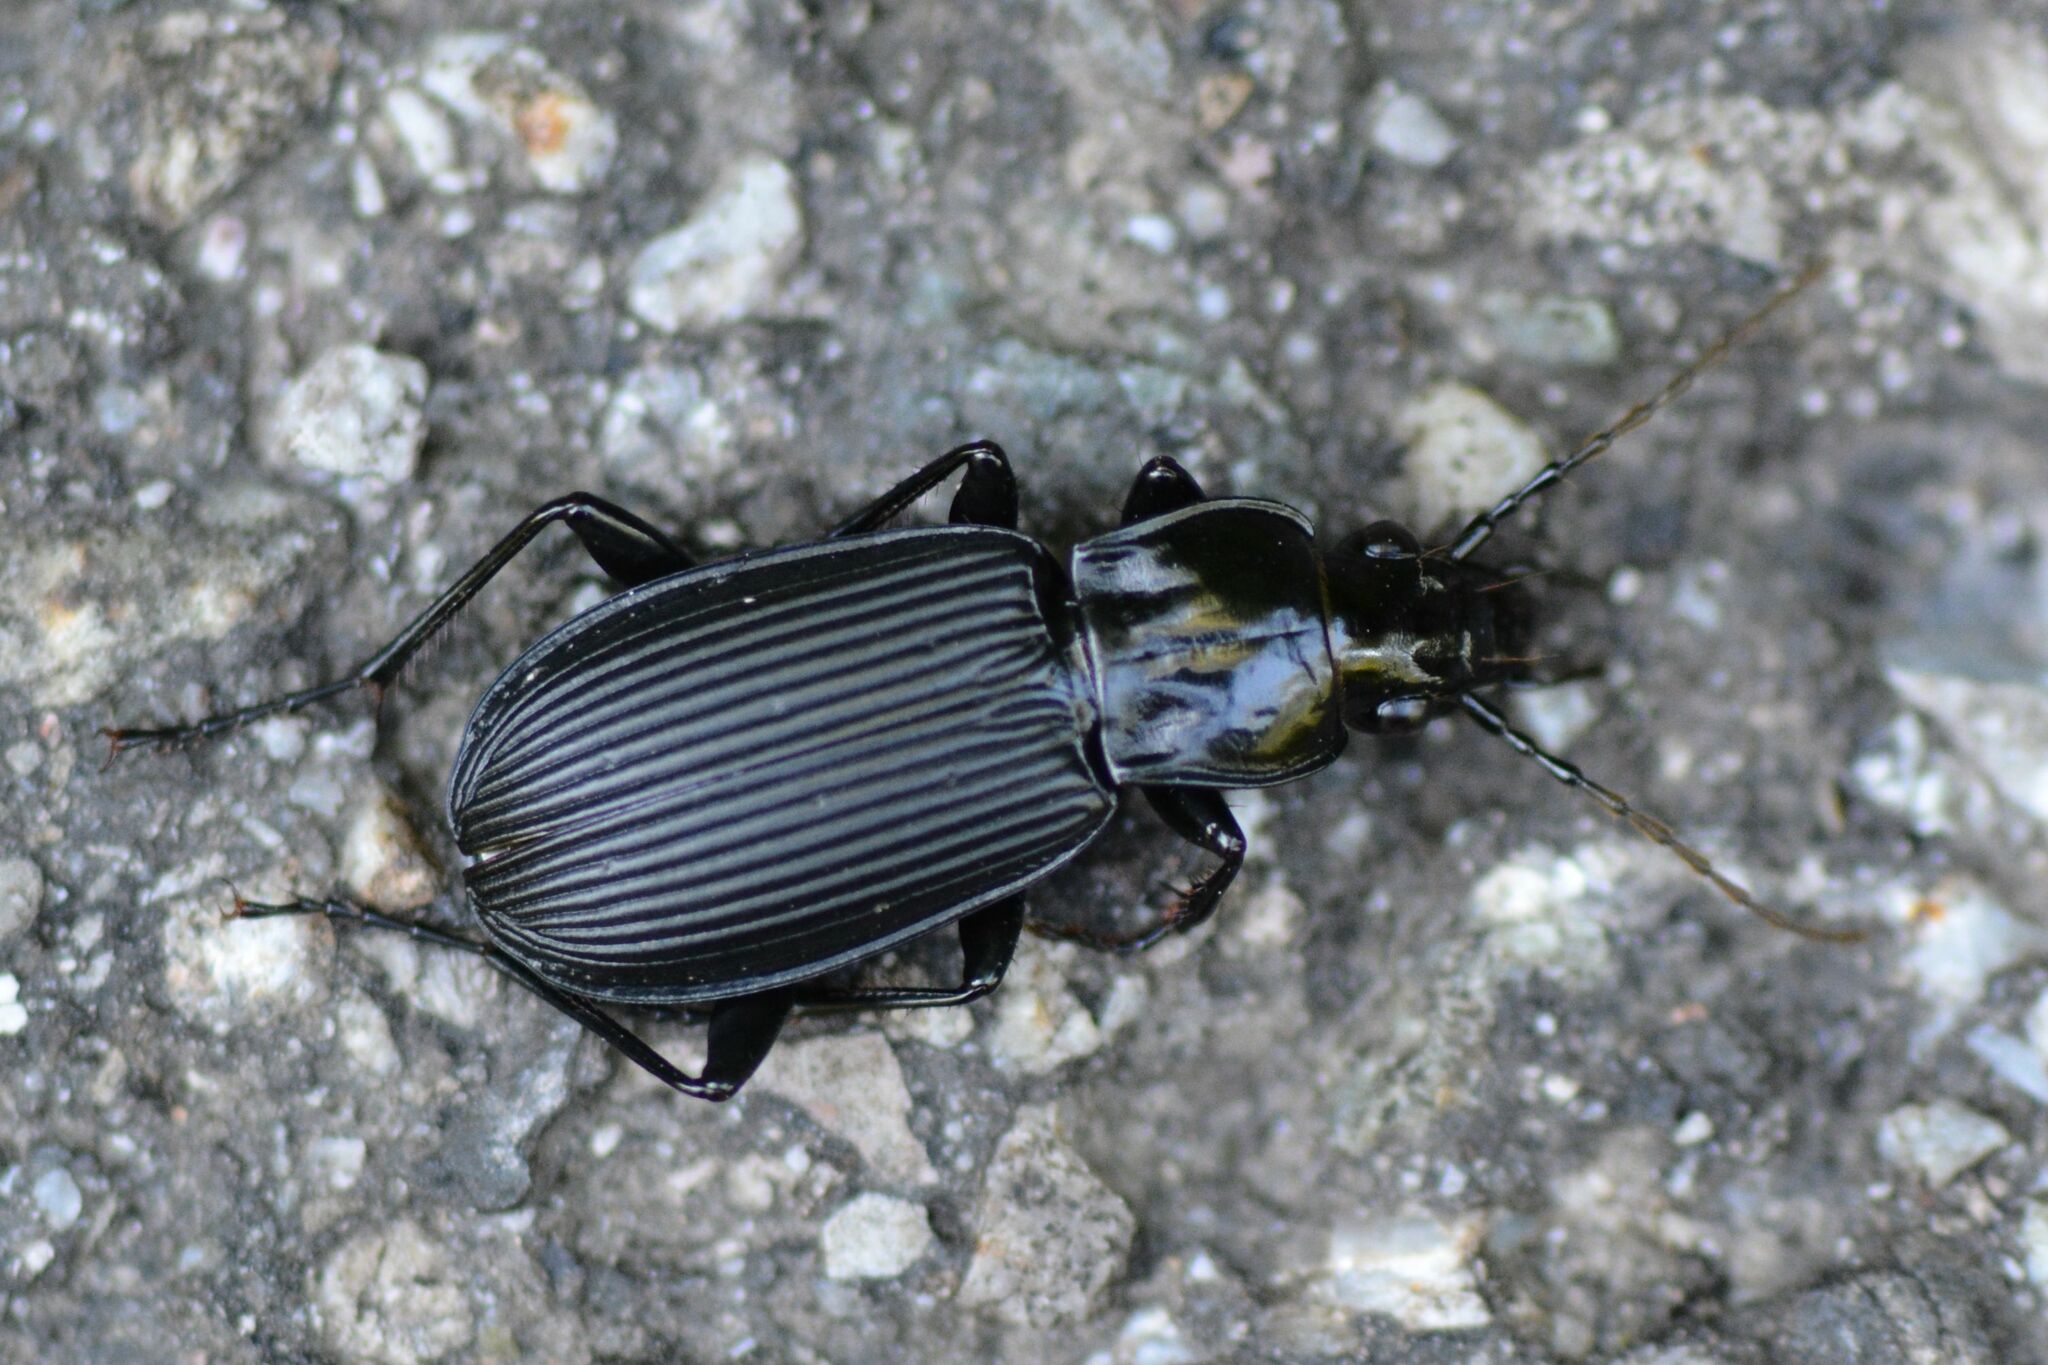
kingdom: Animalia
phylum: Arthropoda
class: Insecta
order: Coleoptera
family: Carabidae
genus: Pterostichus
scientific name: Pterostichus niger
